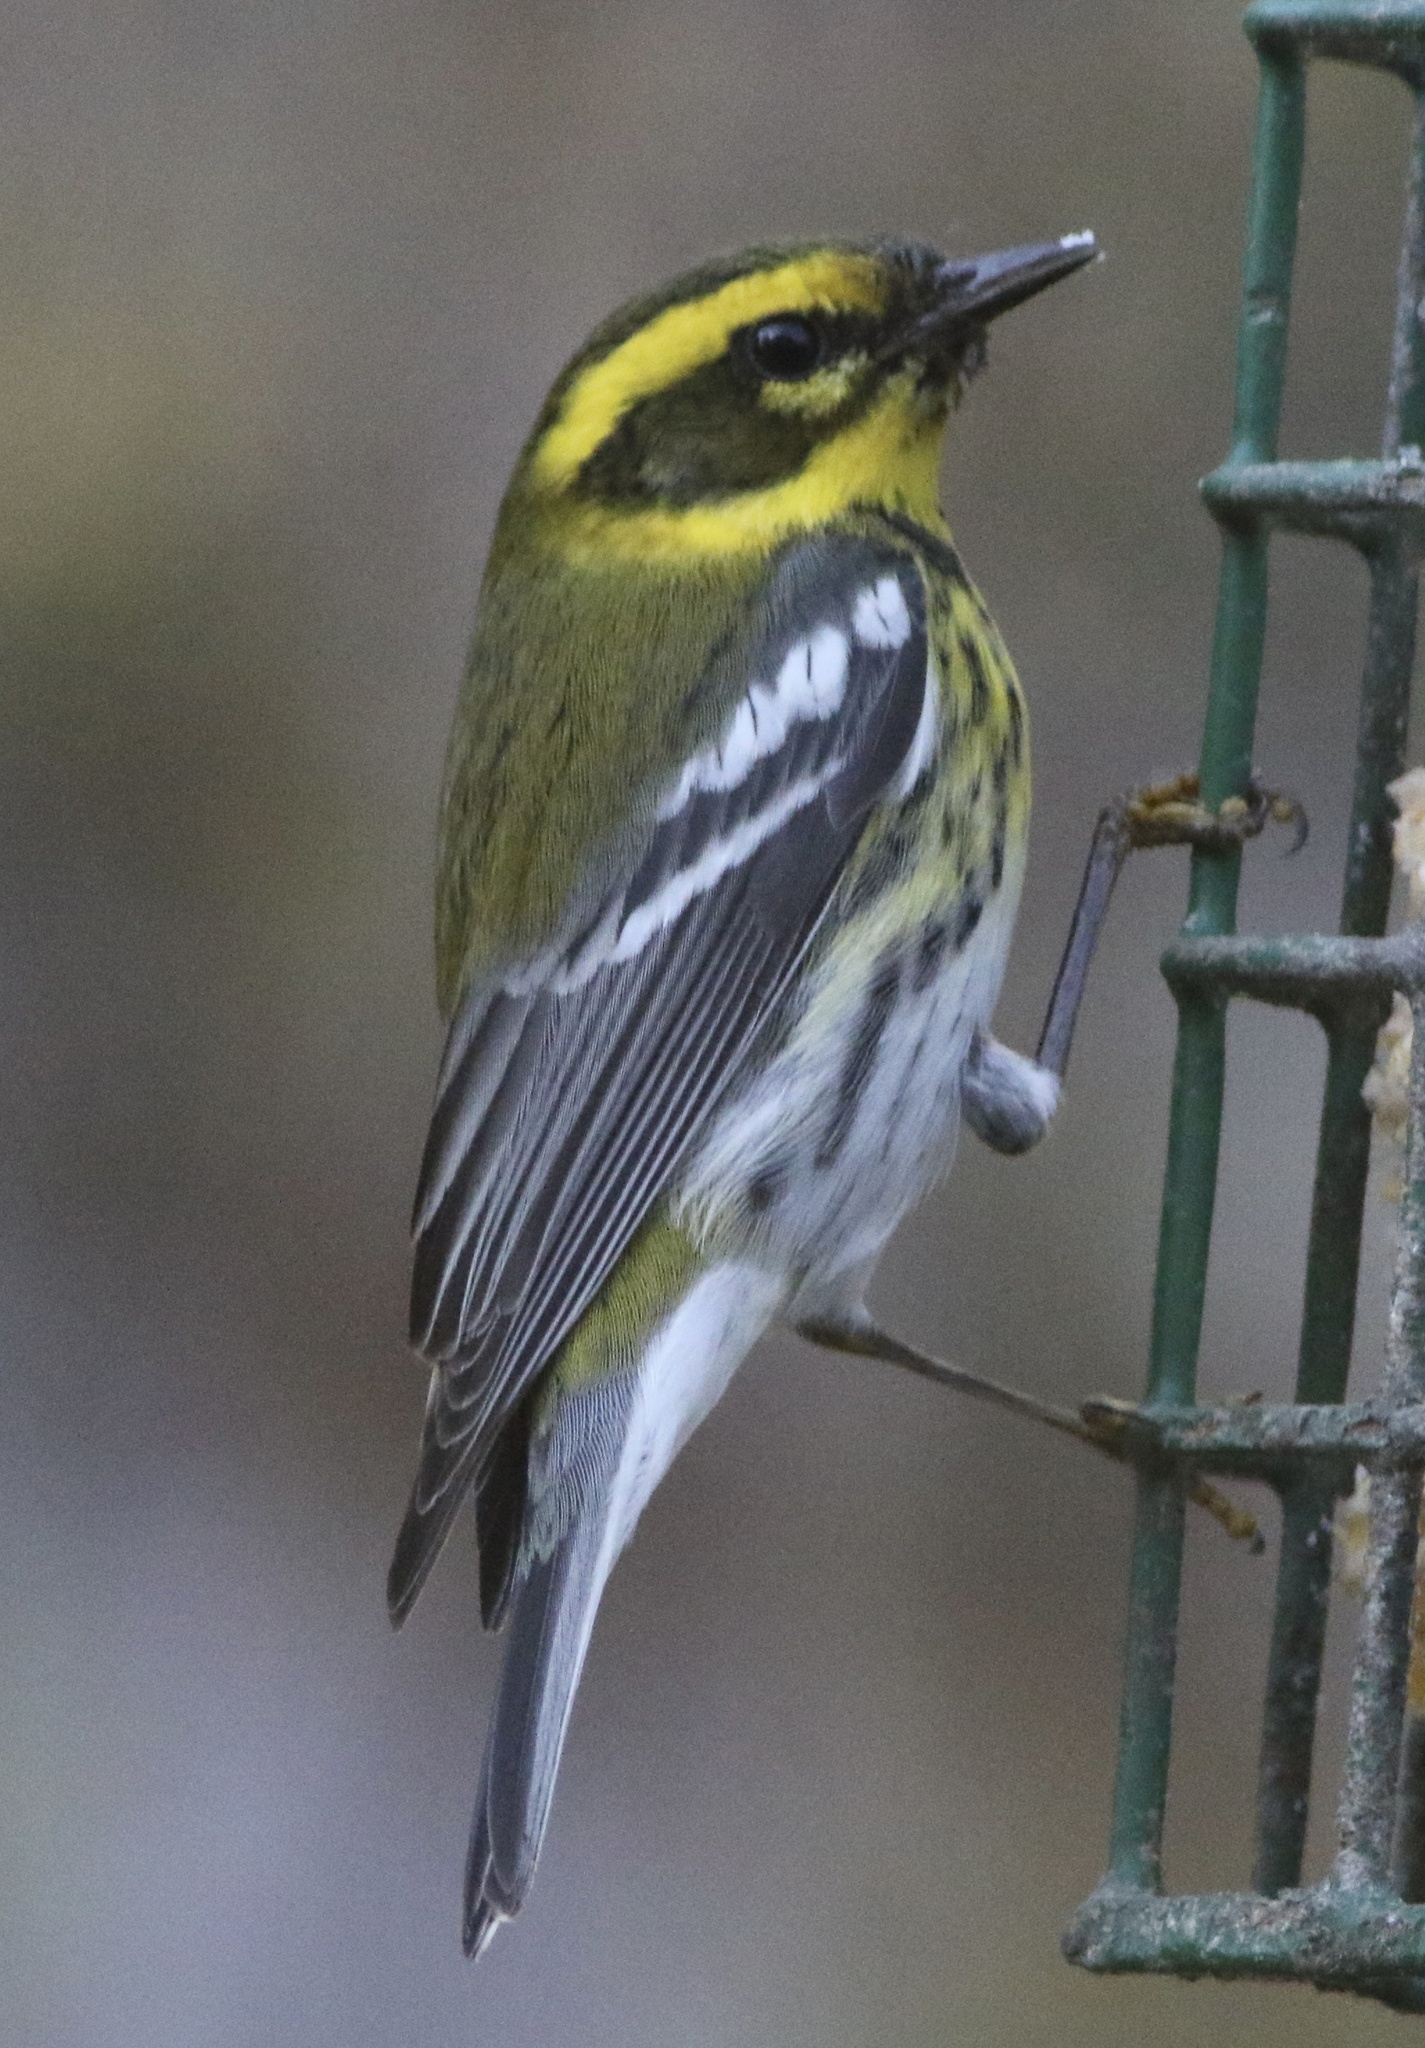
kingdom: Animalia
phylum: Chordata
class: Aves
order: Passeriformes
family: Parulidae
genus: Setophaga
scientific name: Setophaga townsendi
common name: Townsend's warbler
